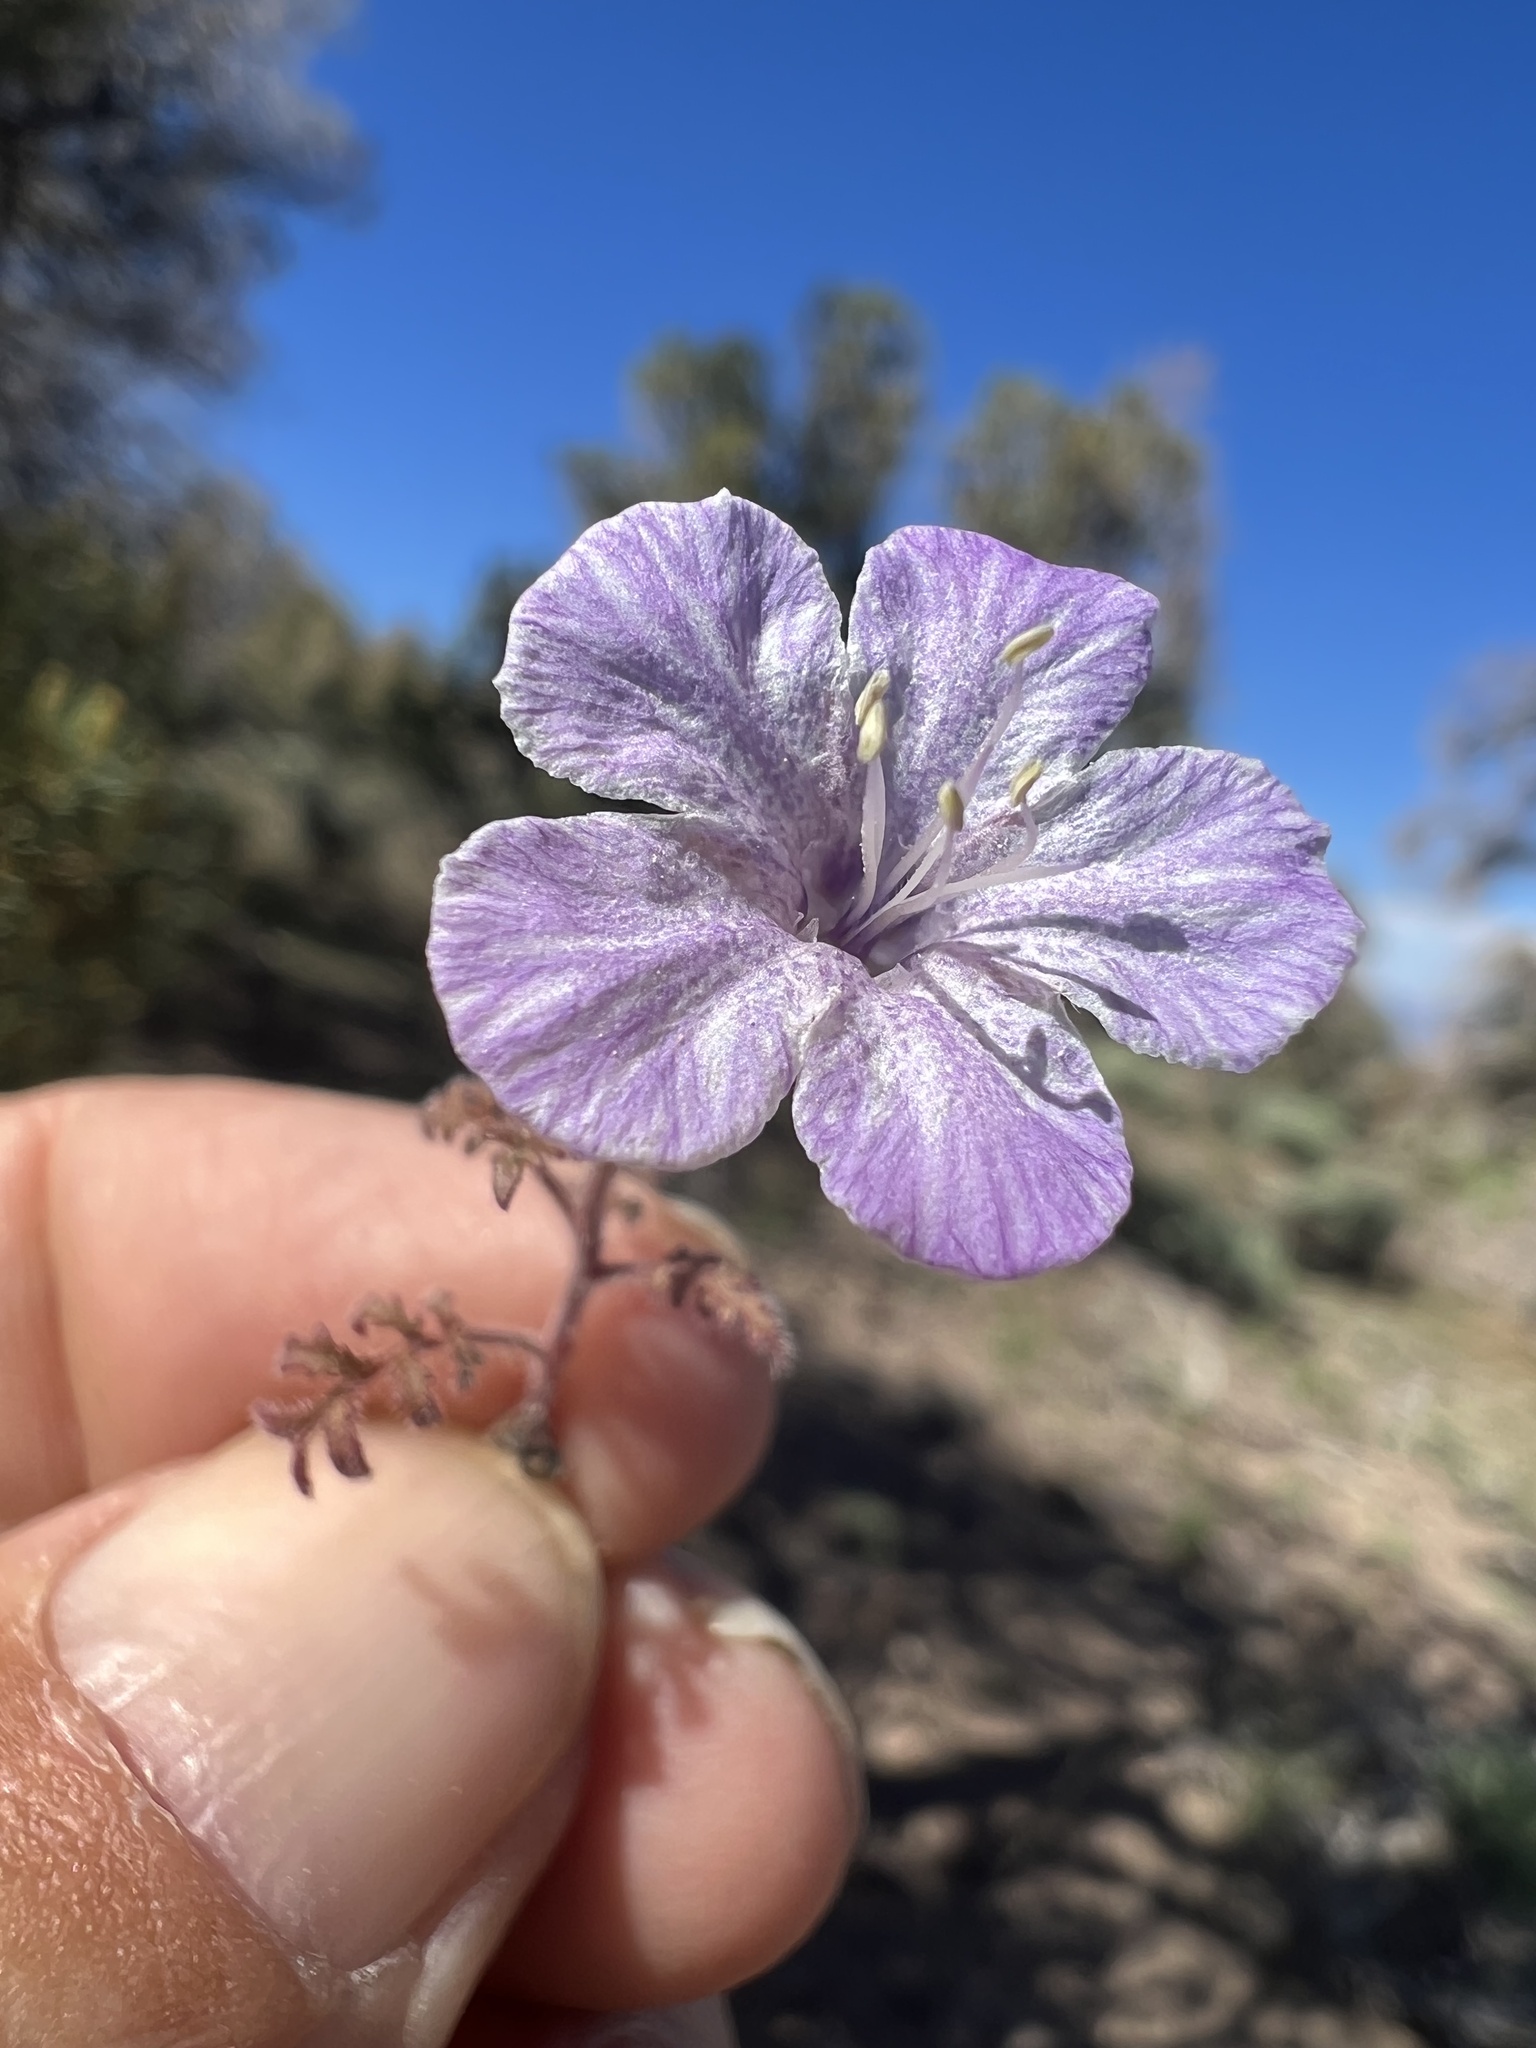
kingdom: Plantae
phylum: Tracheophyta
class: Magnoliopsida
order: Boraginales
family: Hydrophyllaceae
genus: Phacelia
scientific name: Phacelia vallis-mortae
